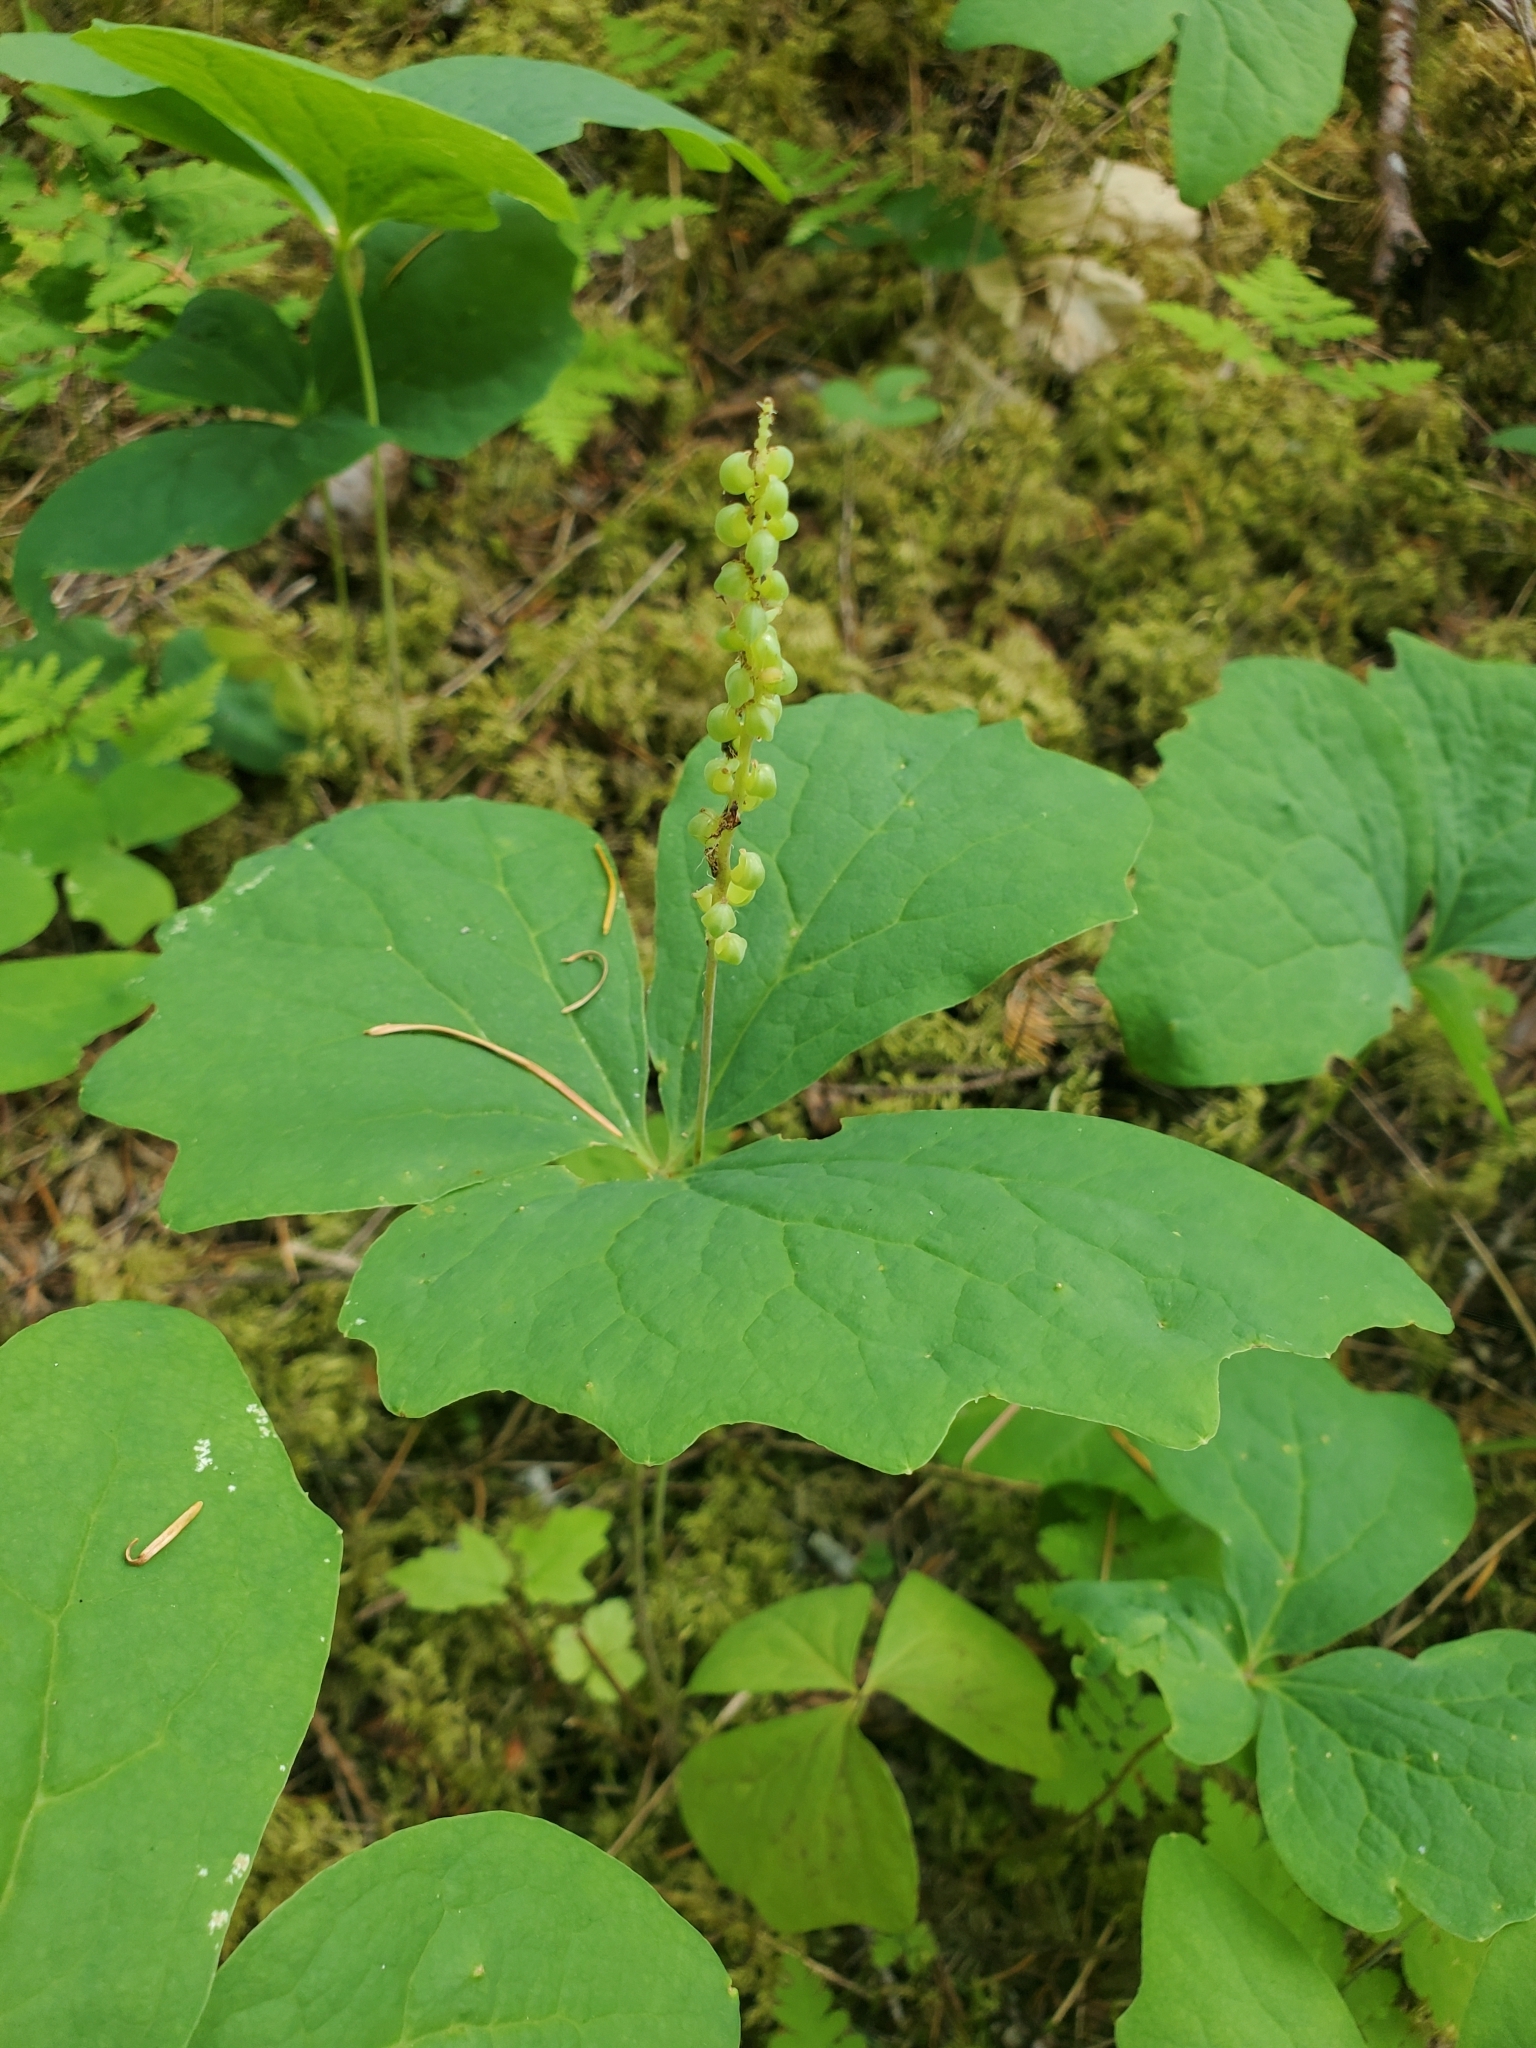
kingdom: Plantae
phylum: Tracheophyta
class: Magnoliopsida
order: Ranunculales
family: Berberidaceae
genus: Achlys
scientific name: Achlys triphylla
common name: Vanilla-leaf
